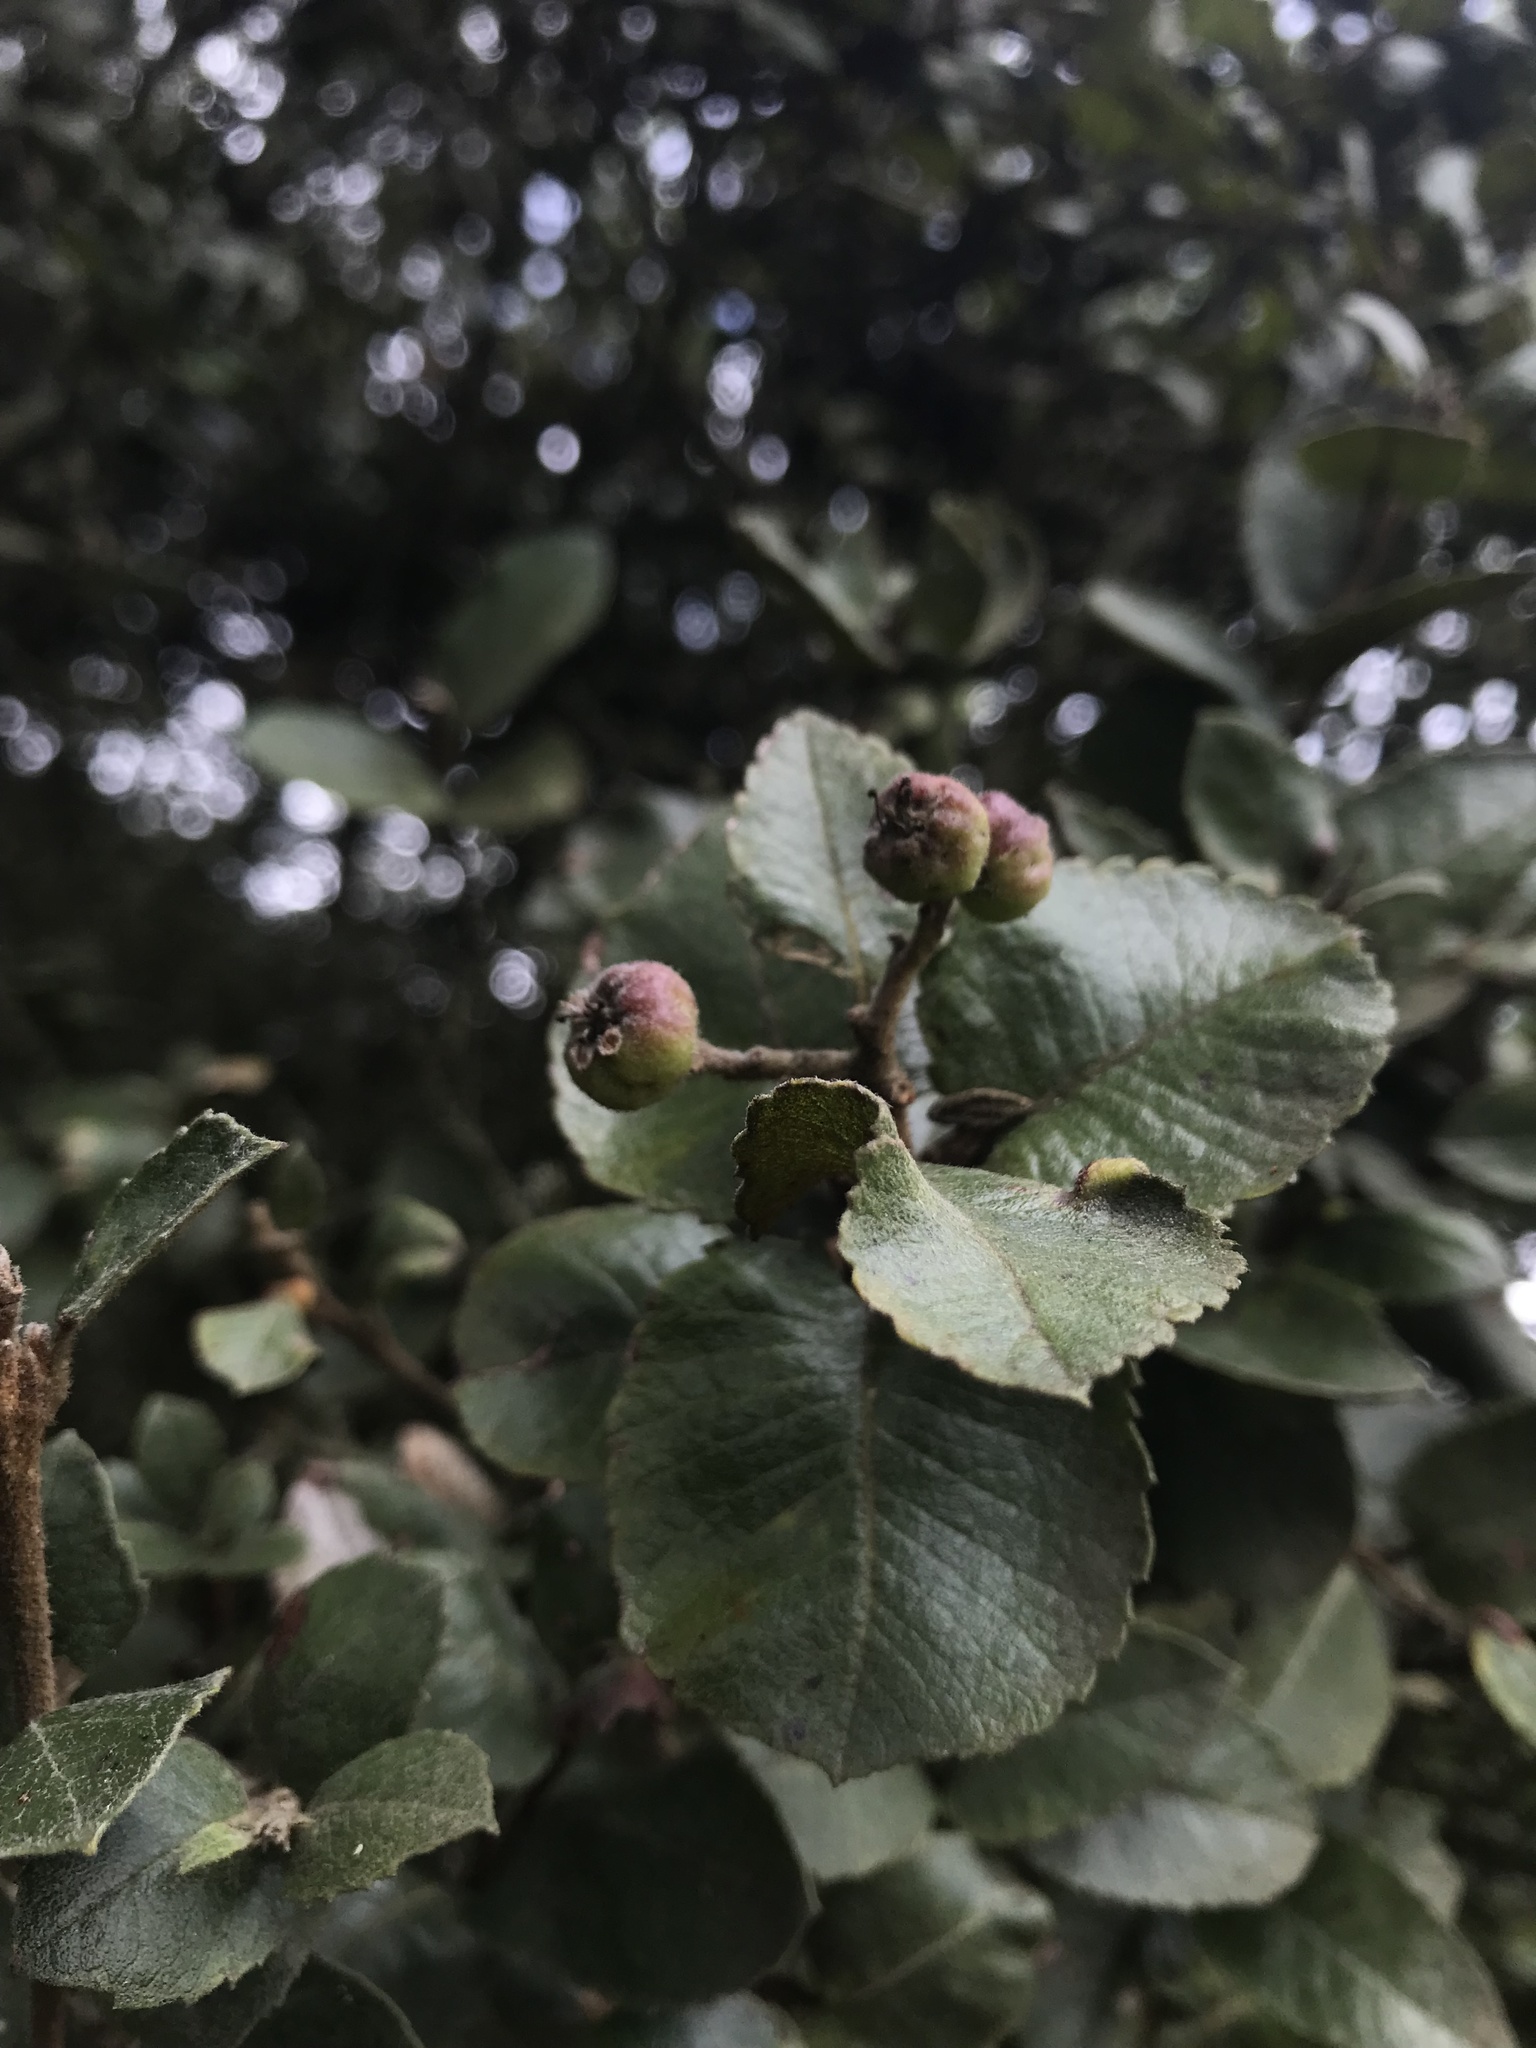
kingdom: Plantae
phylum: Tracheophyta
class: Magnoliopsida
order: Rosales
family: Rosaceae
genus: Hesperomeles
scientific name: Hesperomeles goudotiana
